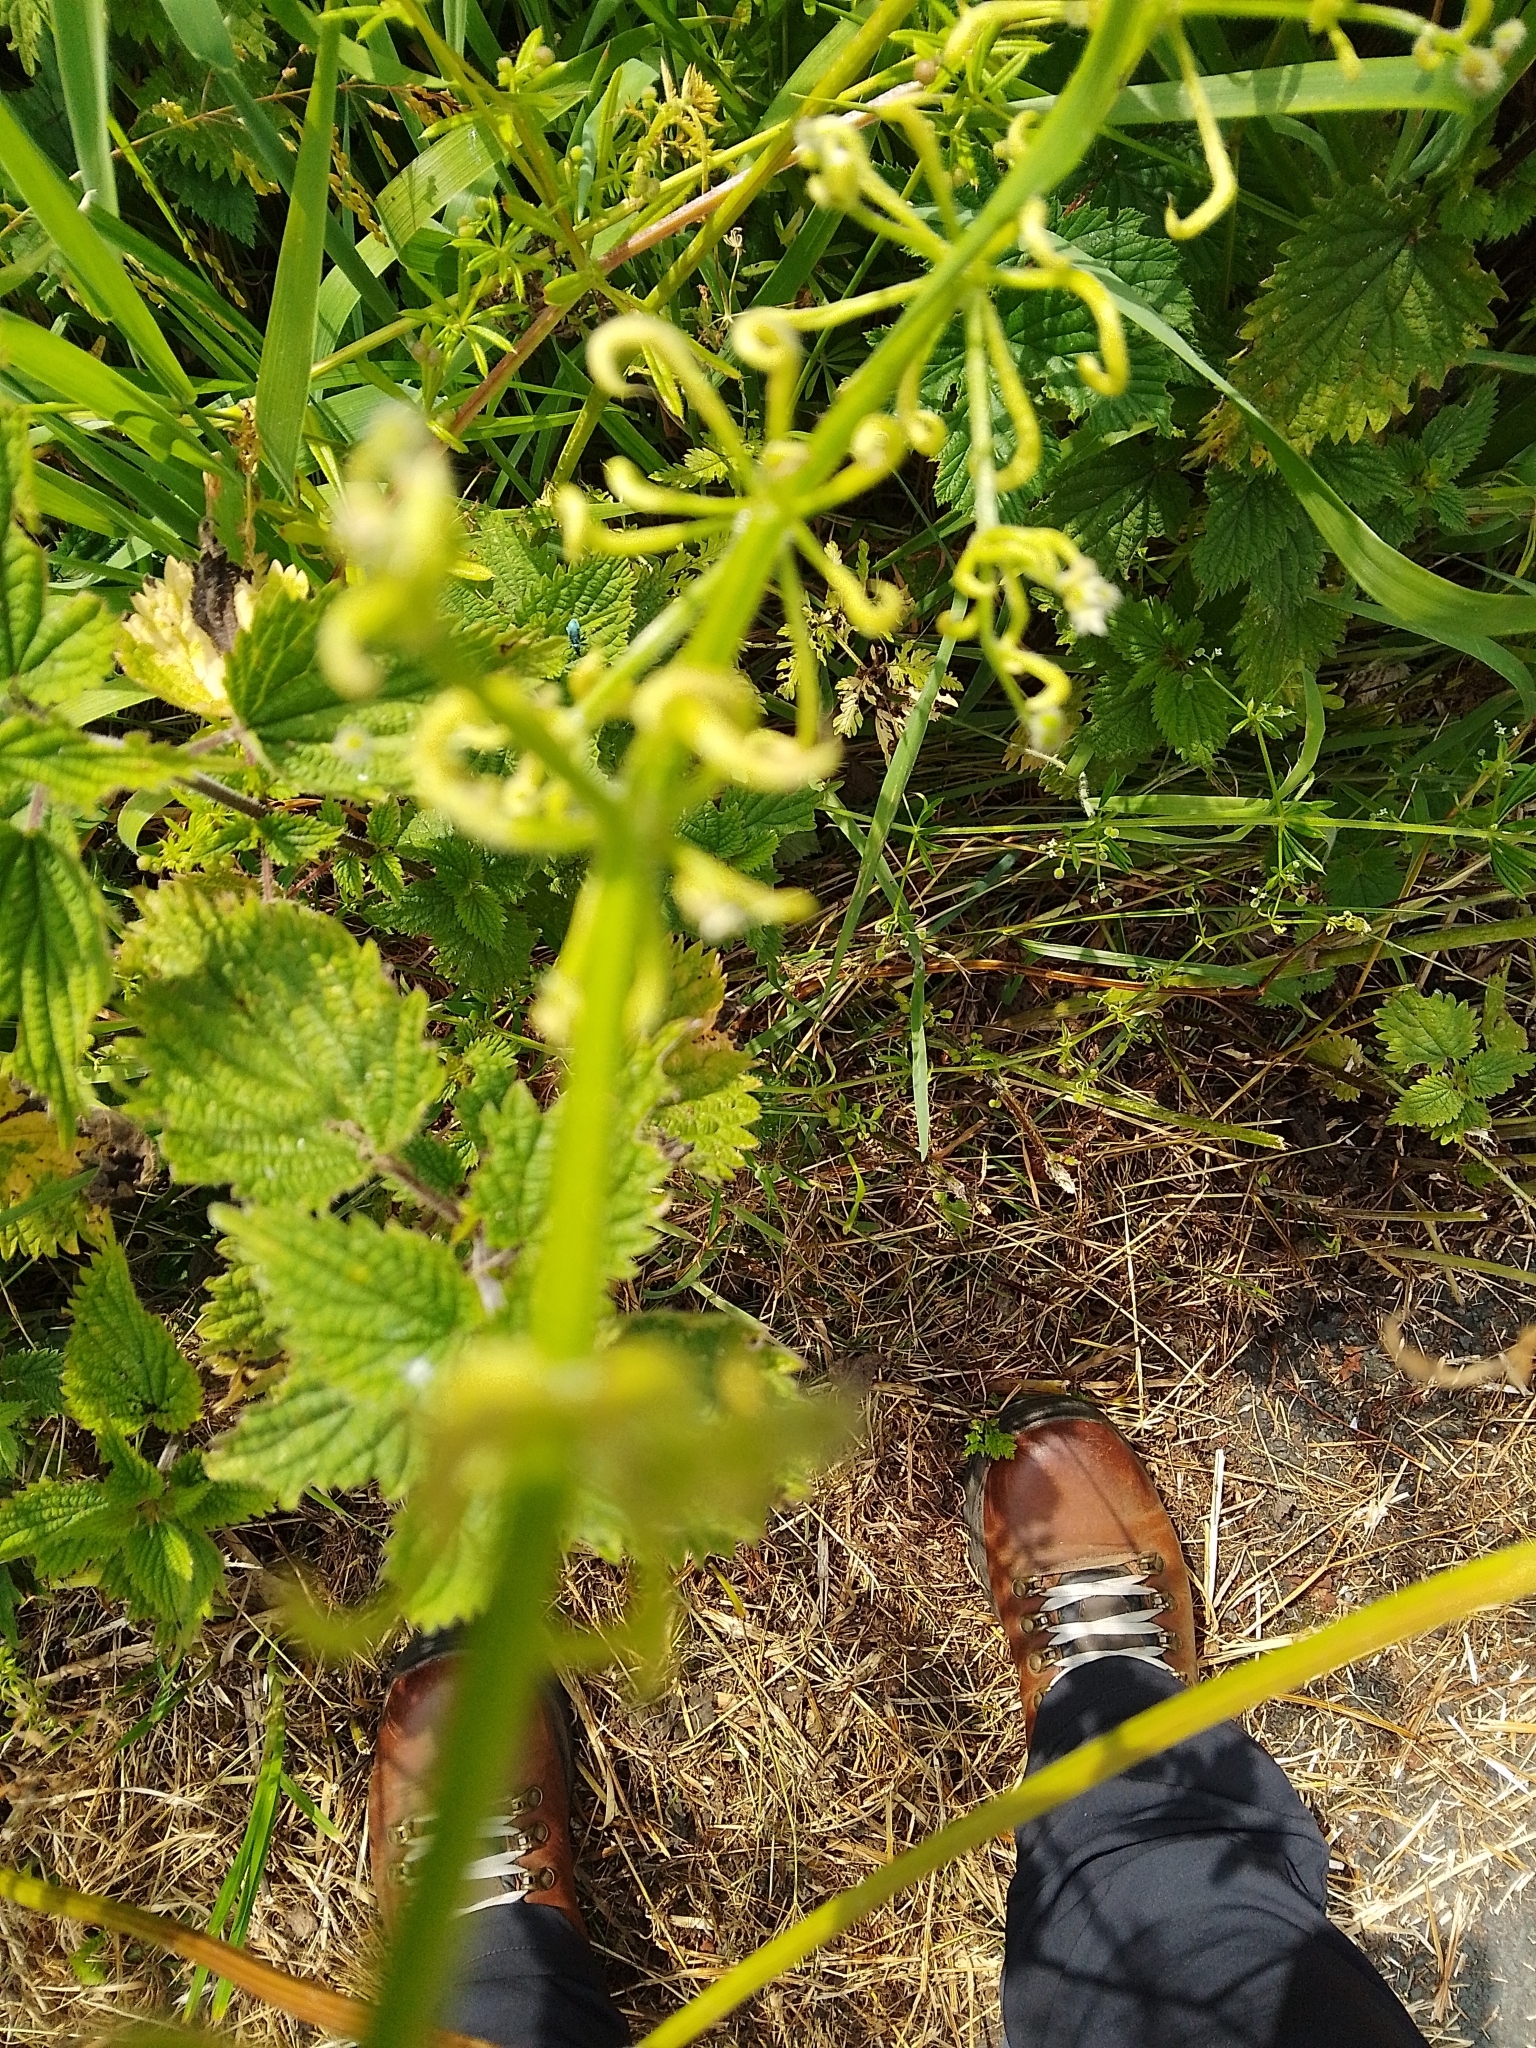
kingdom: Animalia
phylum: Arthropoda
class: Arachnida
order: Trombidiformes
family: Eriophyidae
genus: Cecidophyes
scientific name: Cecidophyes rouhollahi
